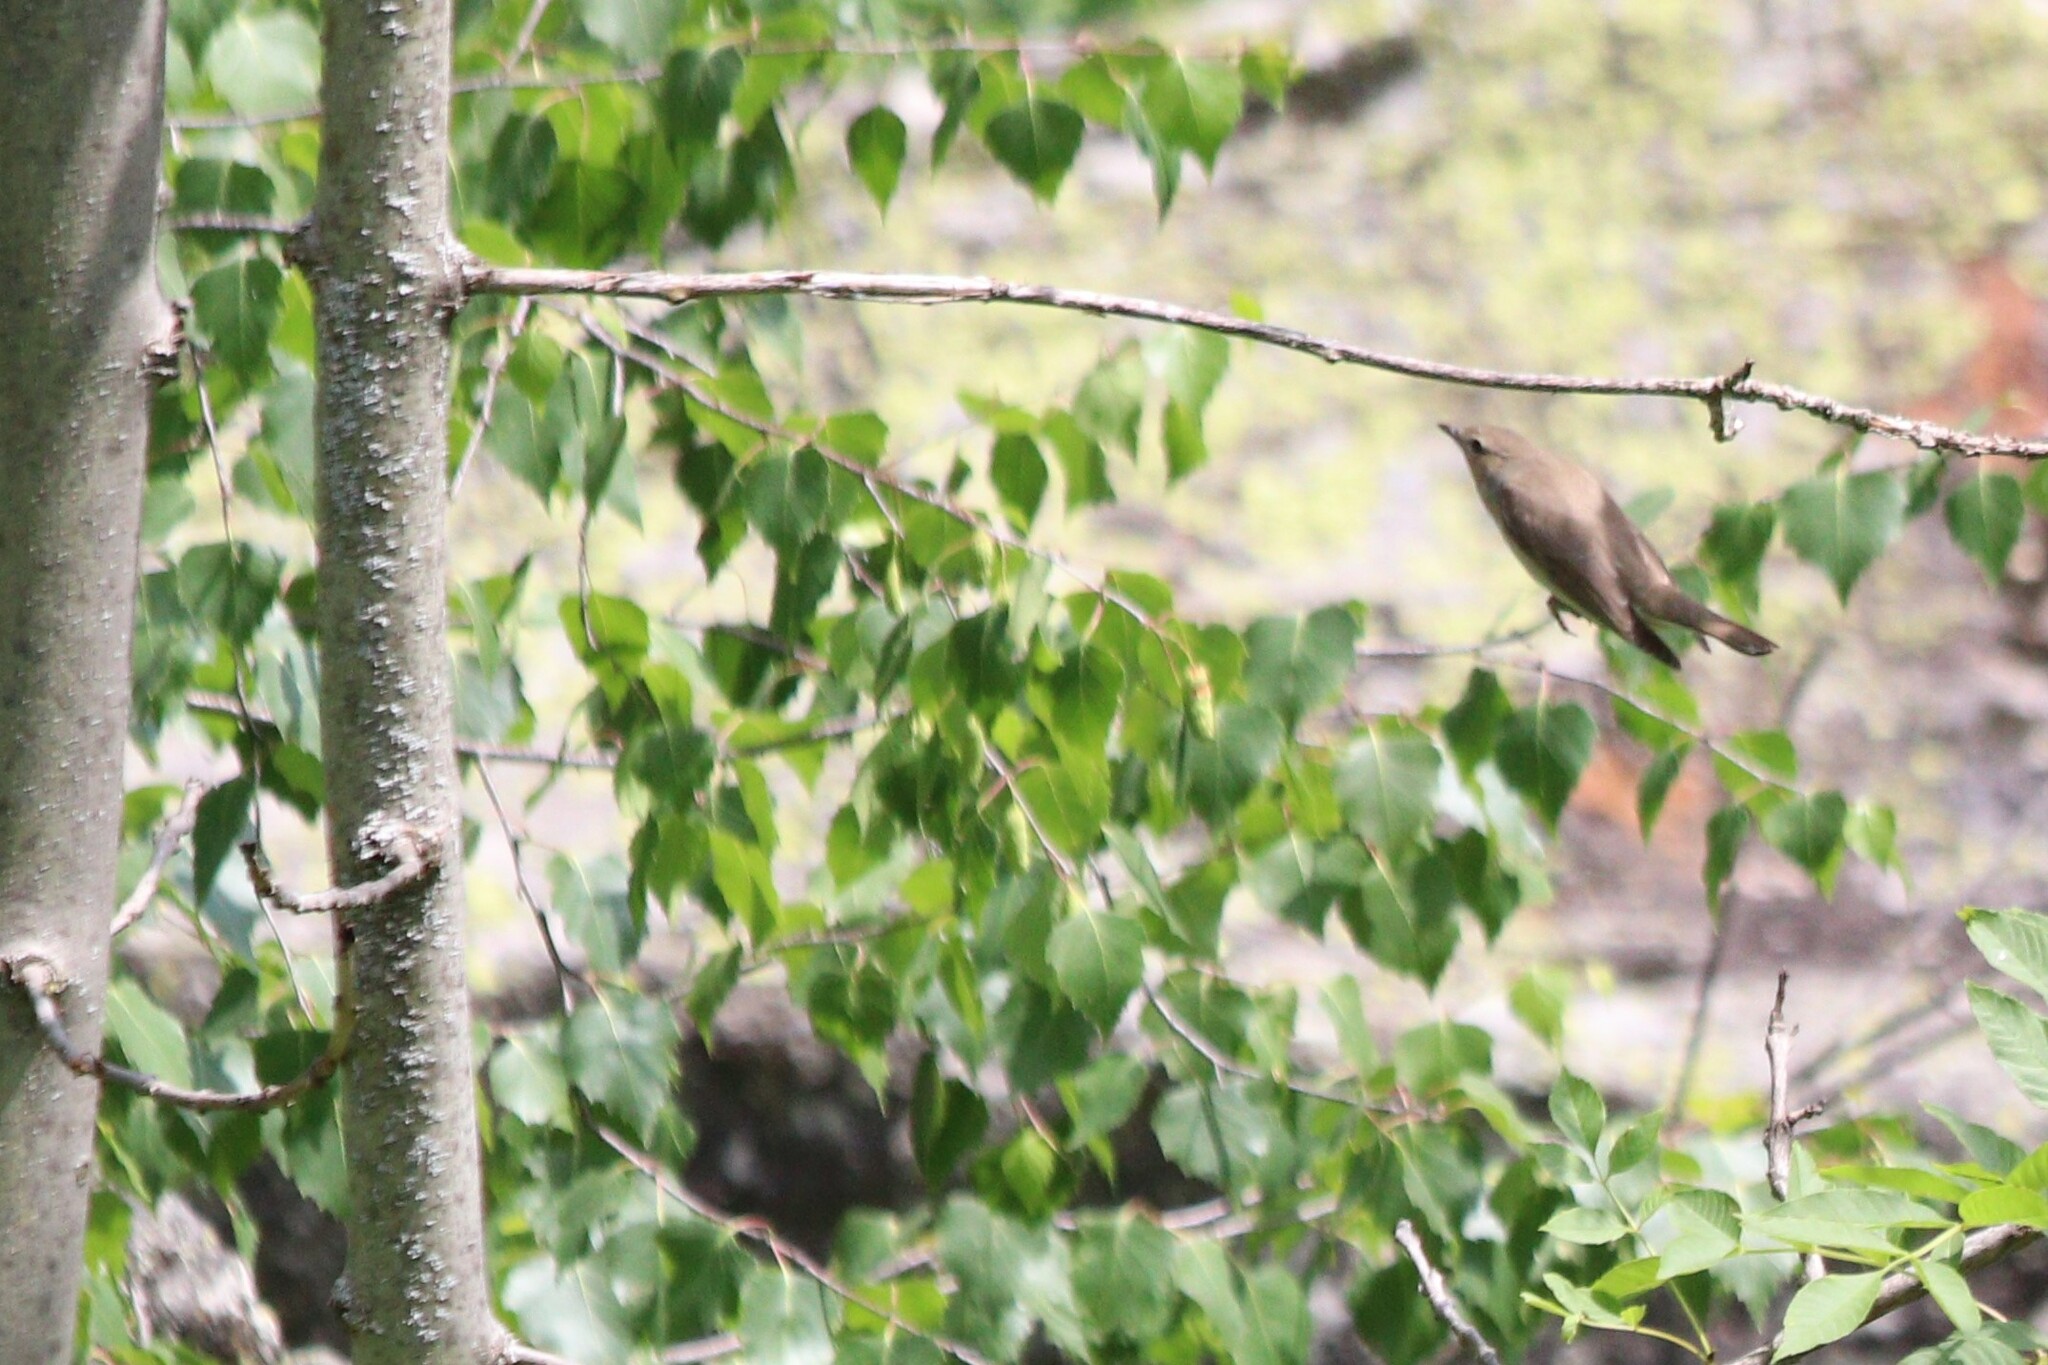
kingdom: Animalia
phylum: Chordata
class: Aves
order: Passeriformes
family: Sylviidae
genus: Sylvia
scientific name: Sylvia borin
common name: Garden warbler
